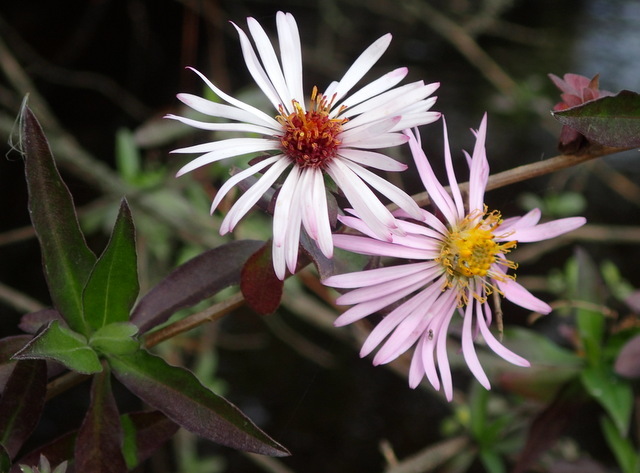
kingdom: Plantae
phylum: Tracheophyta
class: Magnoliopsida
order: Asterales
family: Asteraceae
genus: Ampelaster
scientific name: Ampelaster carolinianus
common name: Climbing aster
